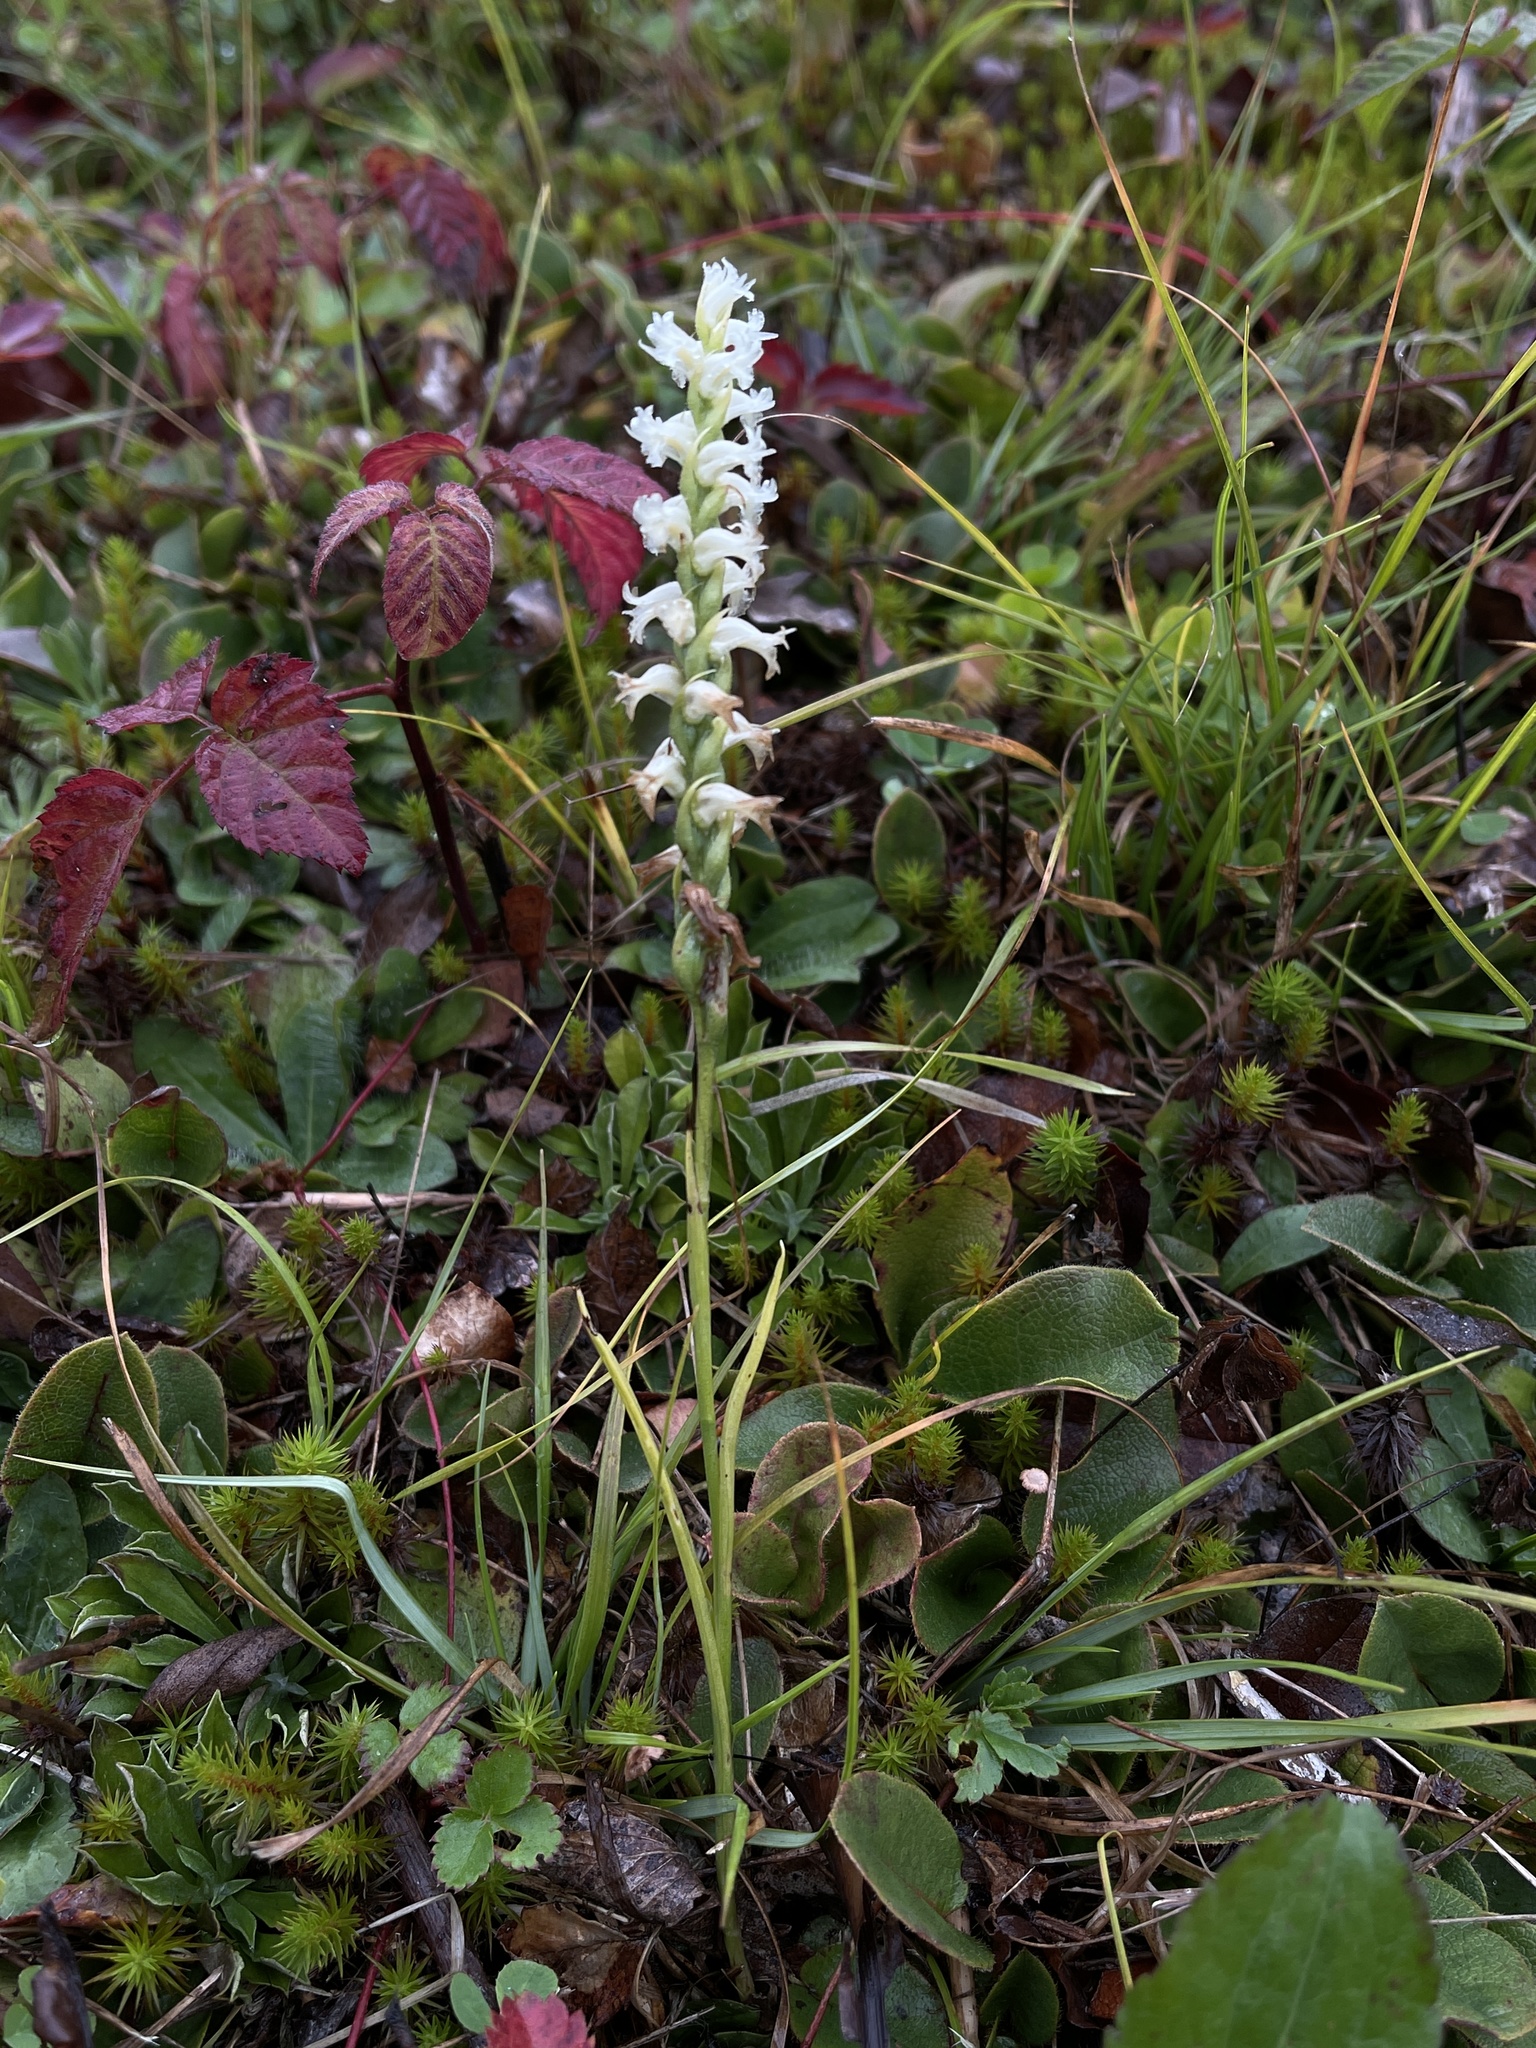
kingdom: Plantae
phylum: Tracheophyta
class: Liliopsida
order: Asparagales
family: Orchidaceae
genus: Spiranthes
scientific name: Spiranthes ochroleuca
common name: Yellow ladies'-tresses
